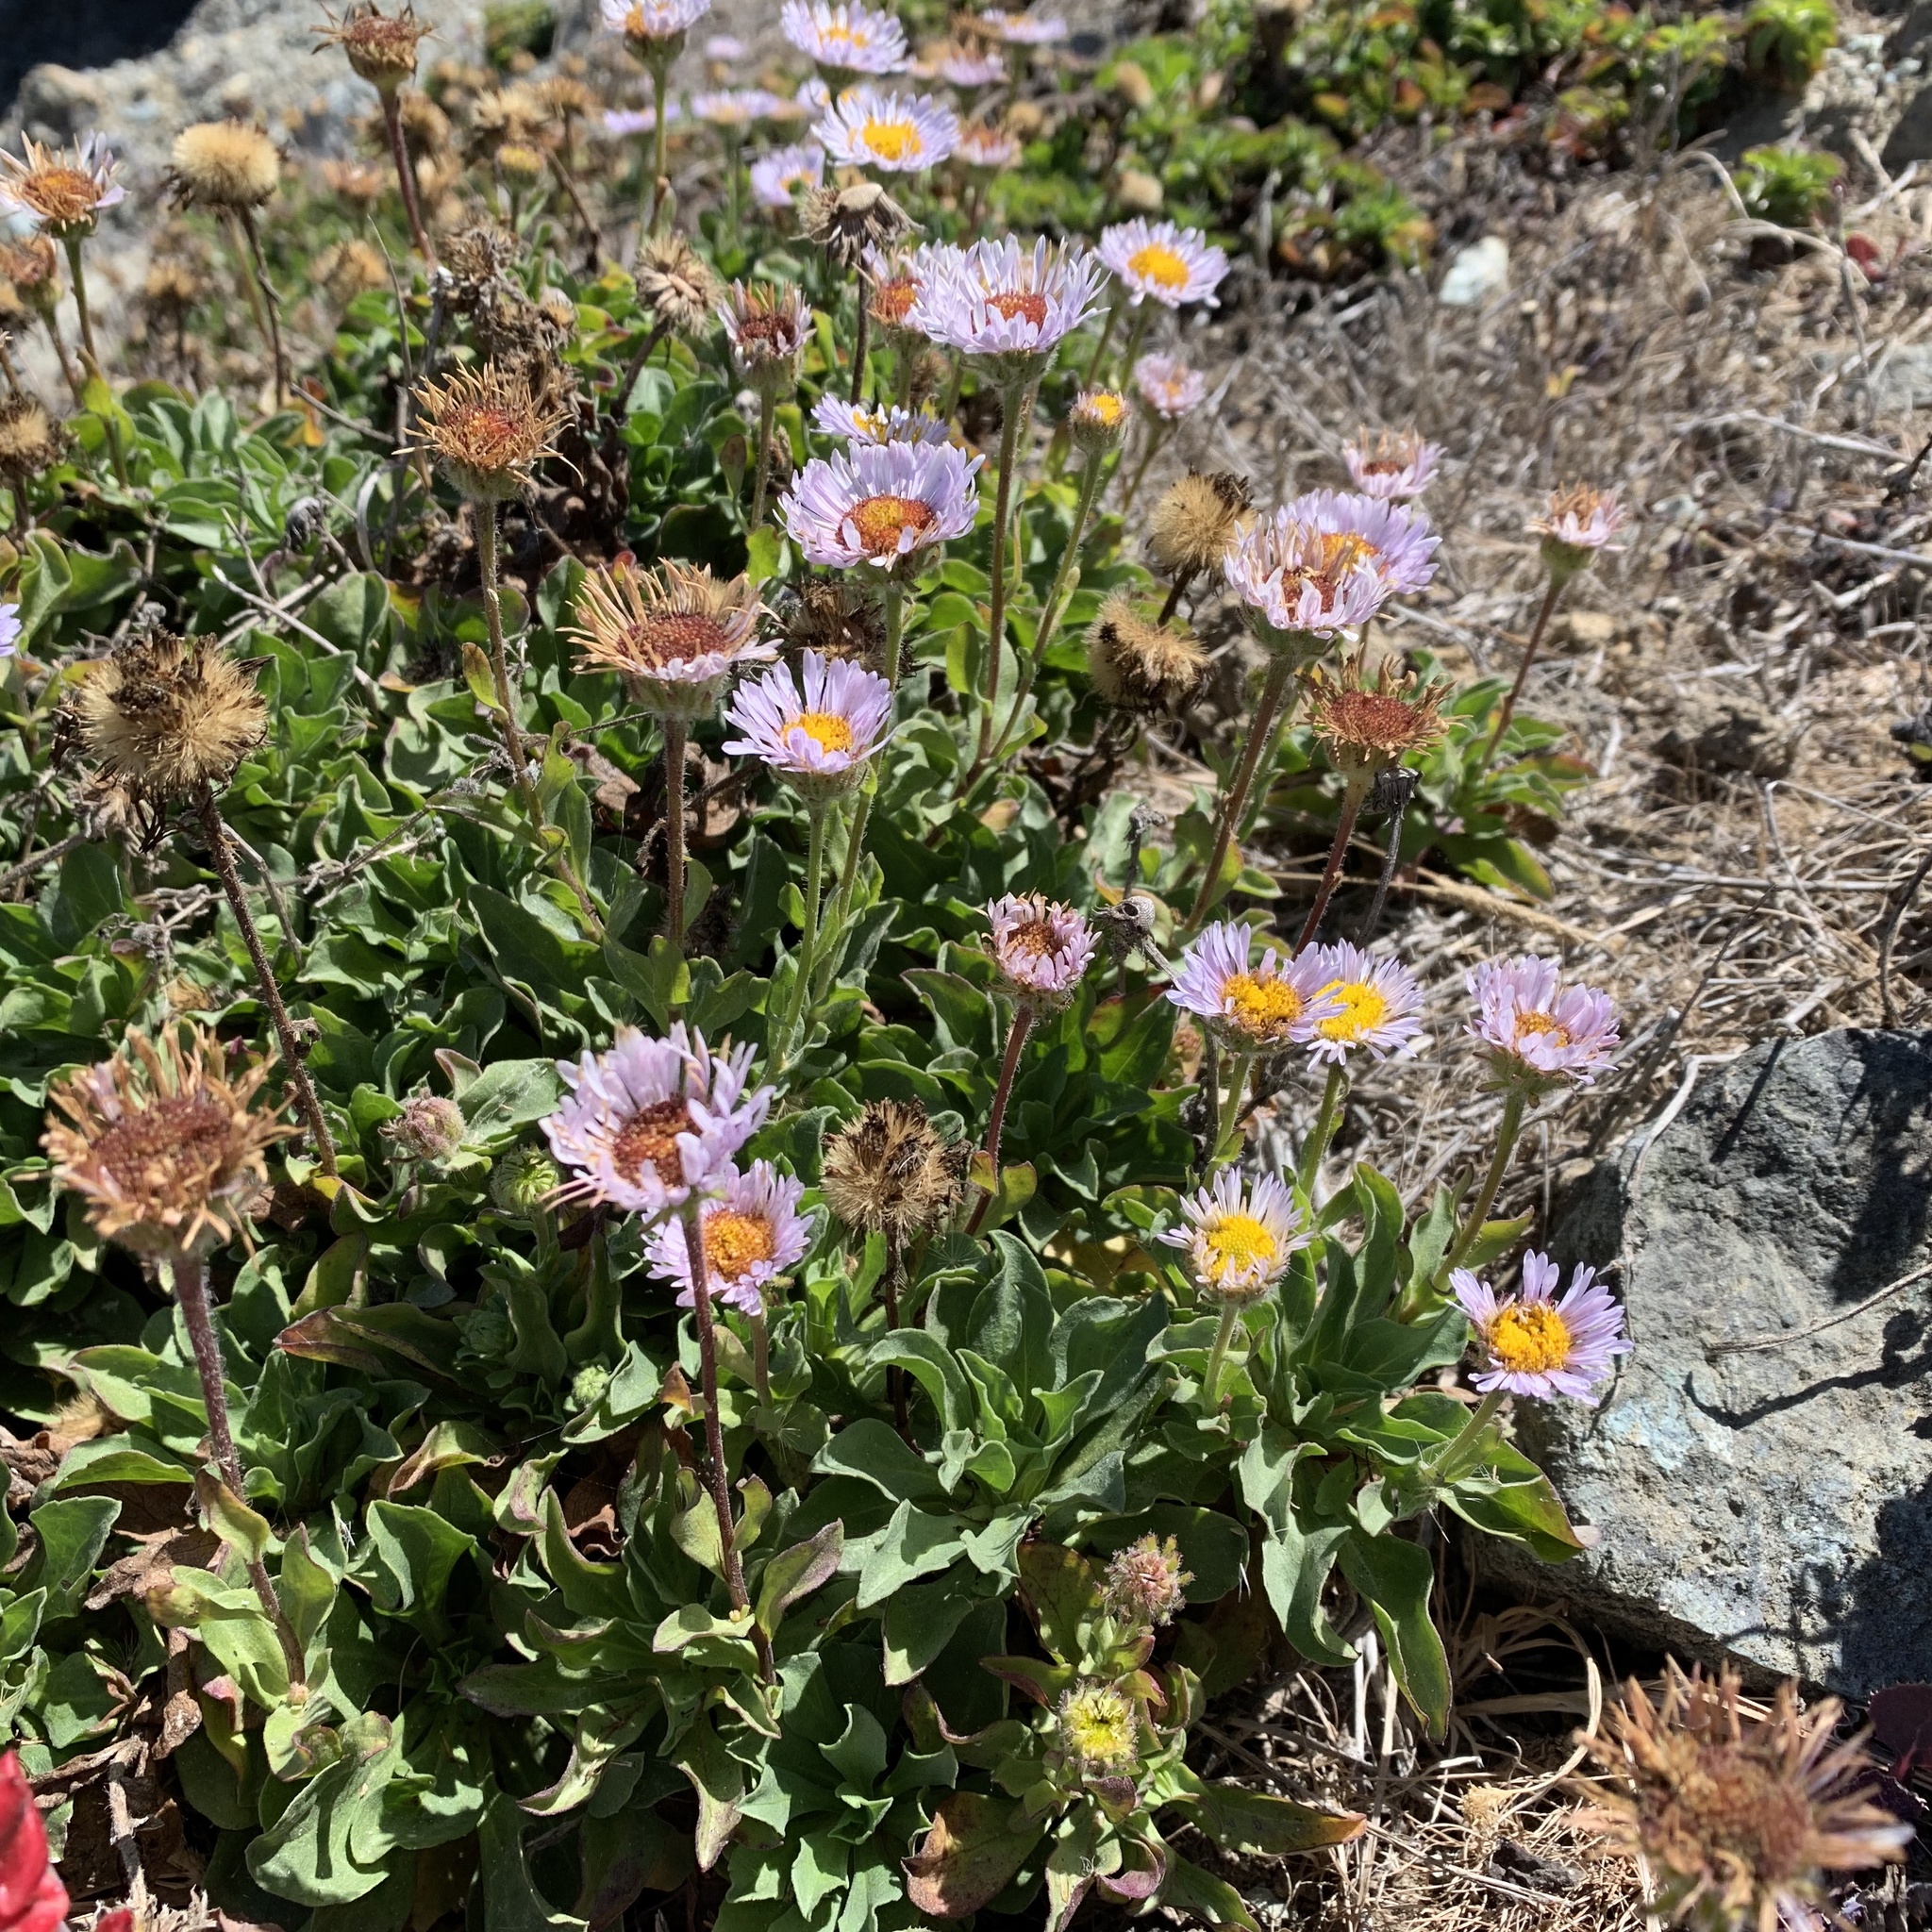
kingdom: Plantae
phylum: Tracheophyta
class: Magnoliopsida
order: Asterales
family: Asteraceae
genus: Erigeron
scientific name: Erigeron glaucus
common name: Seaside daisy
